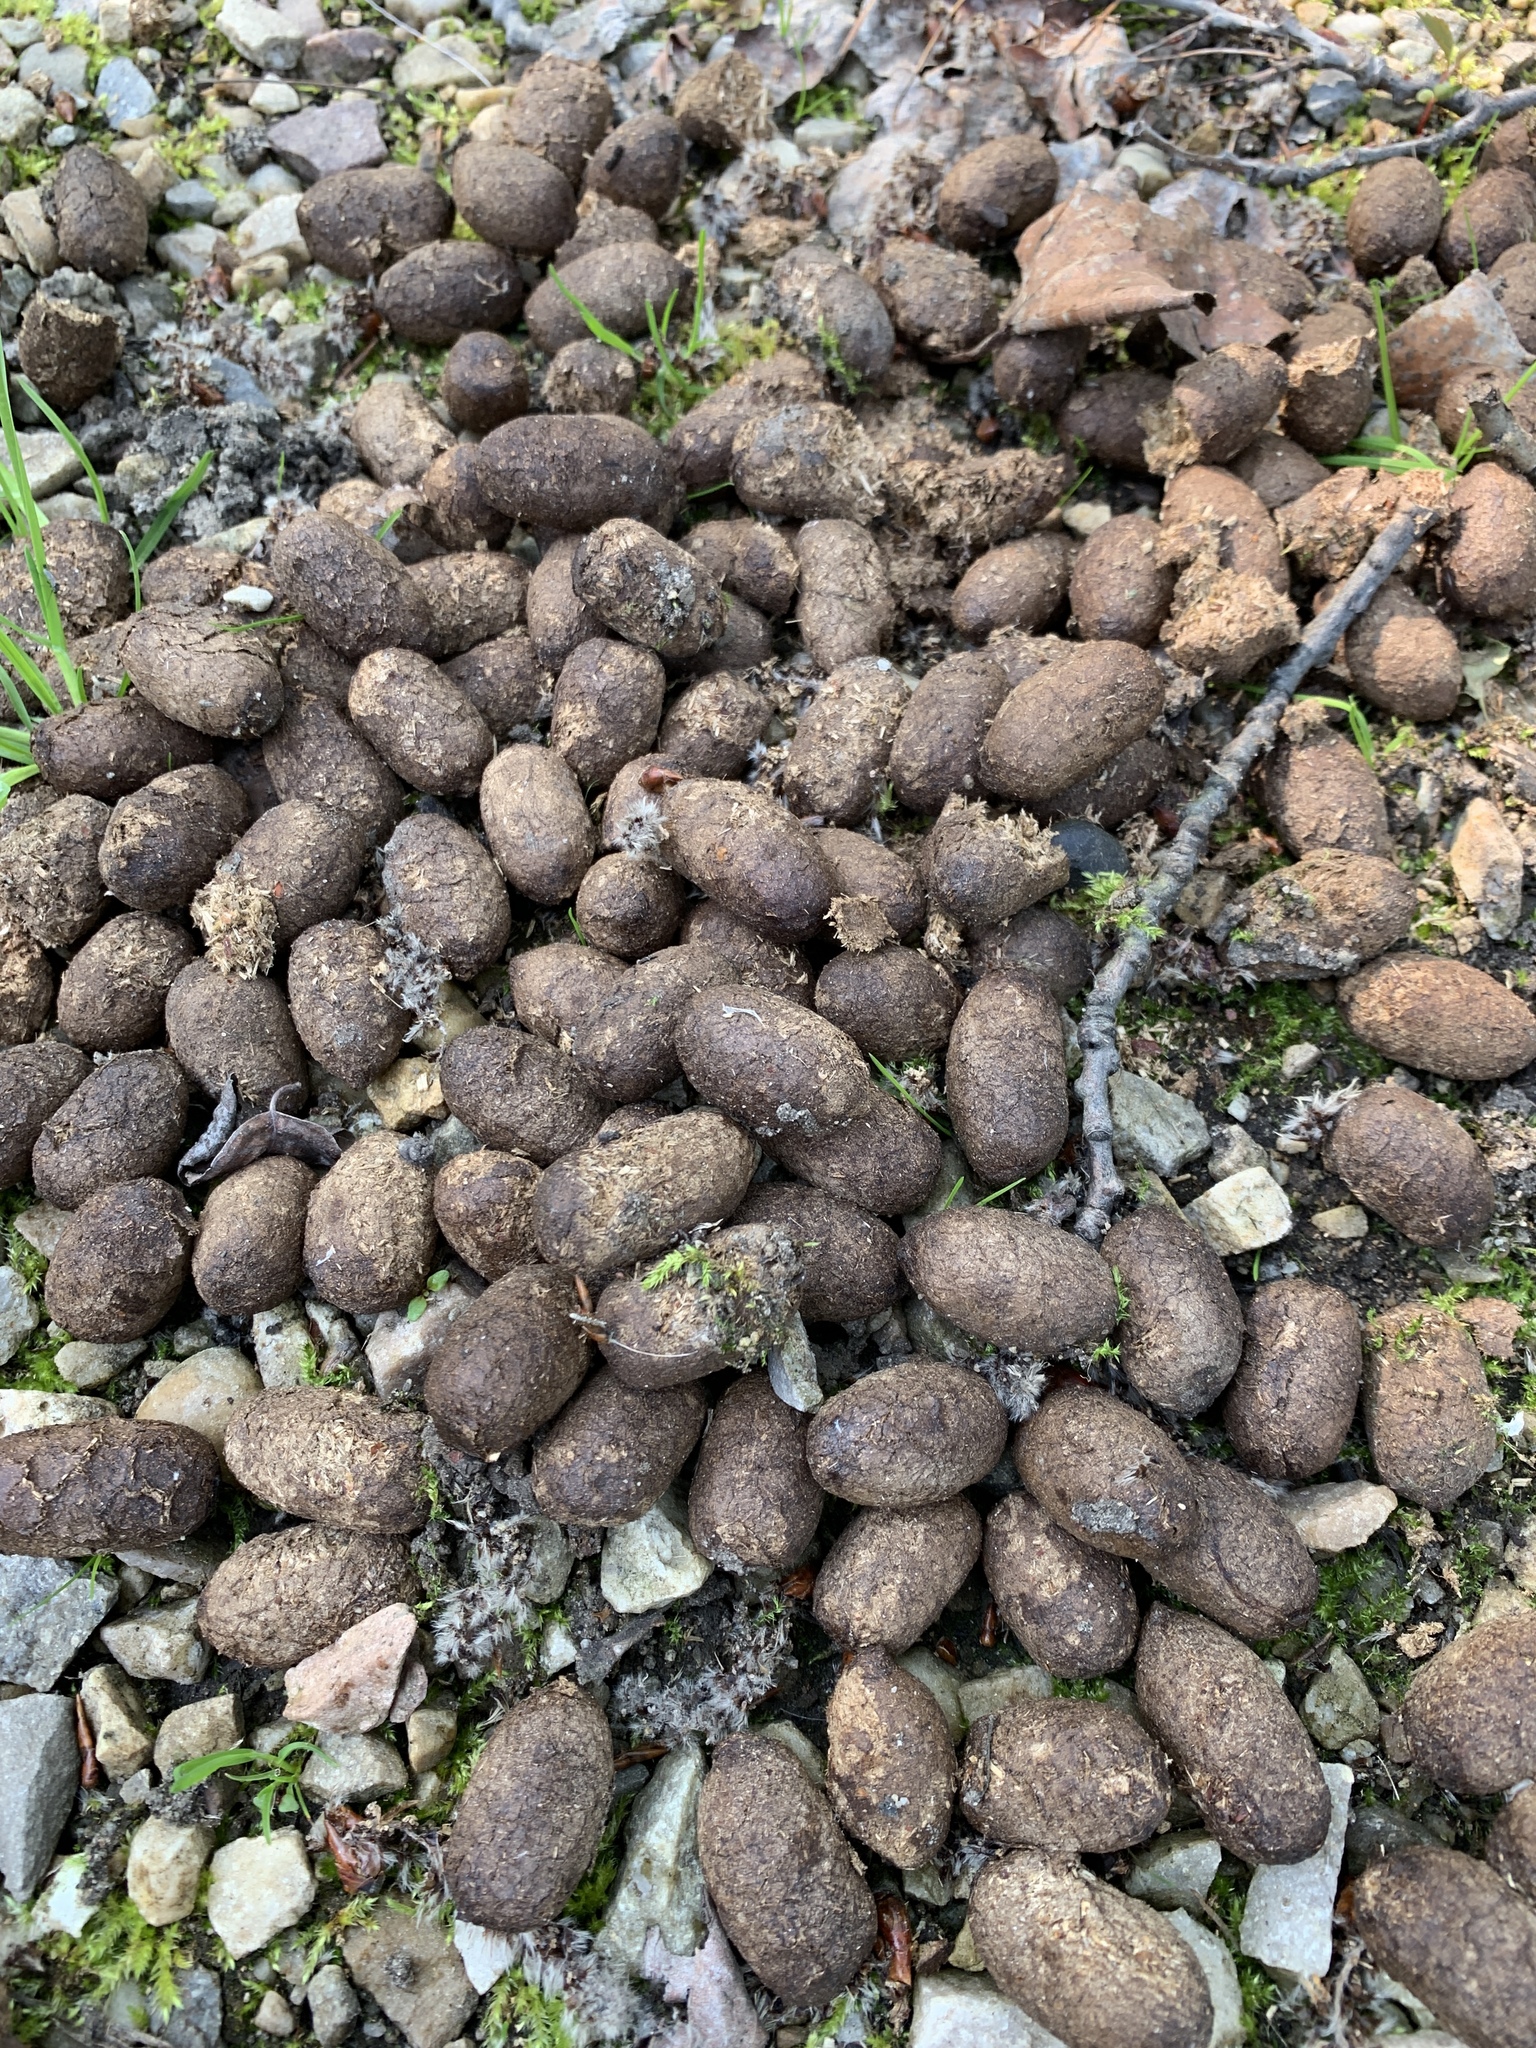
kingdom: Animalia
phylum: Chordata
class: Mammalia
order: Artiodactyla
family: Cervidae
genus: Alces
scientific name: Alces alces
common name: Moose
